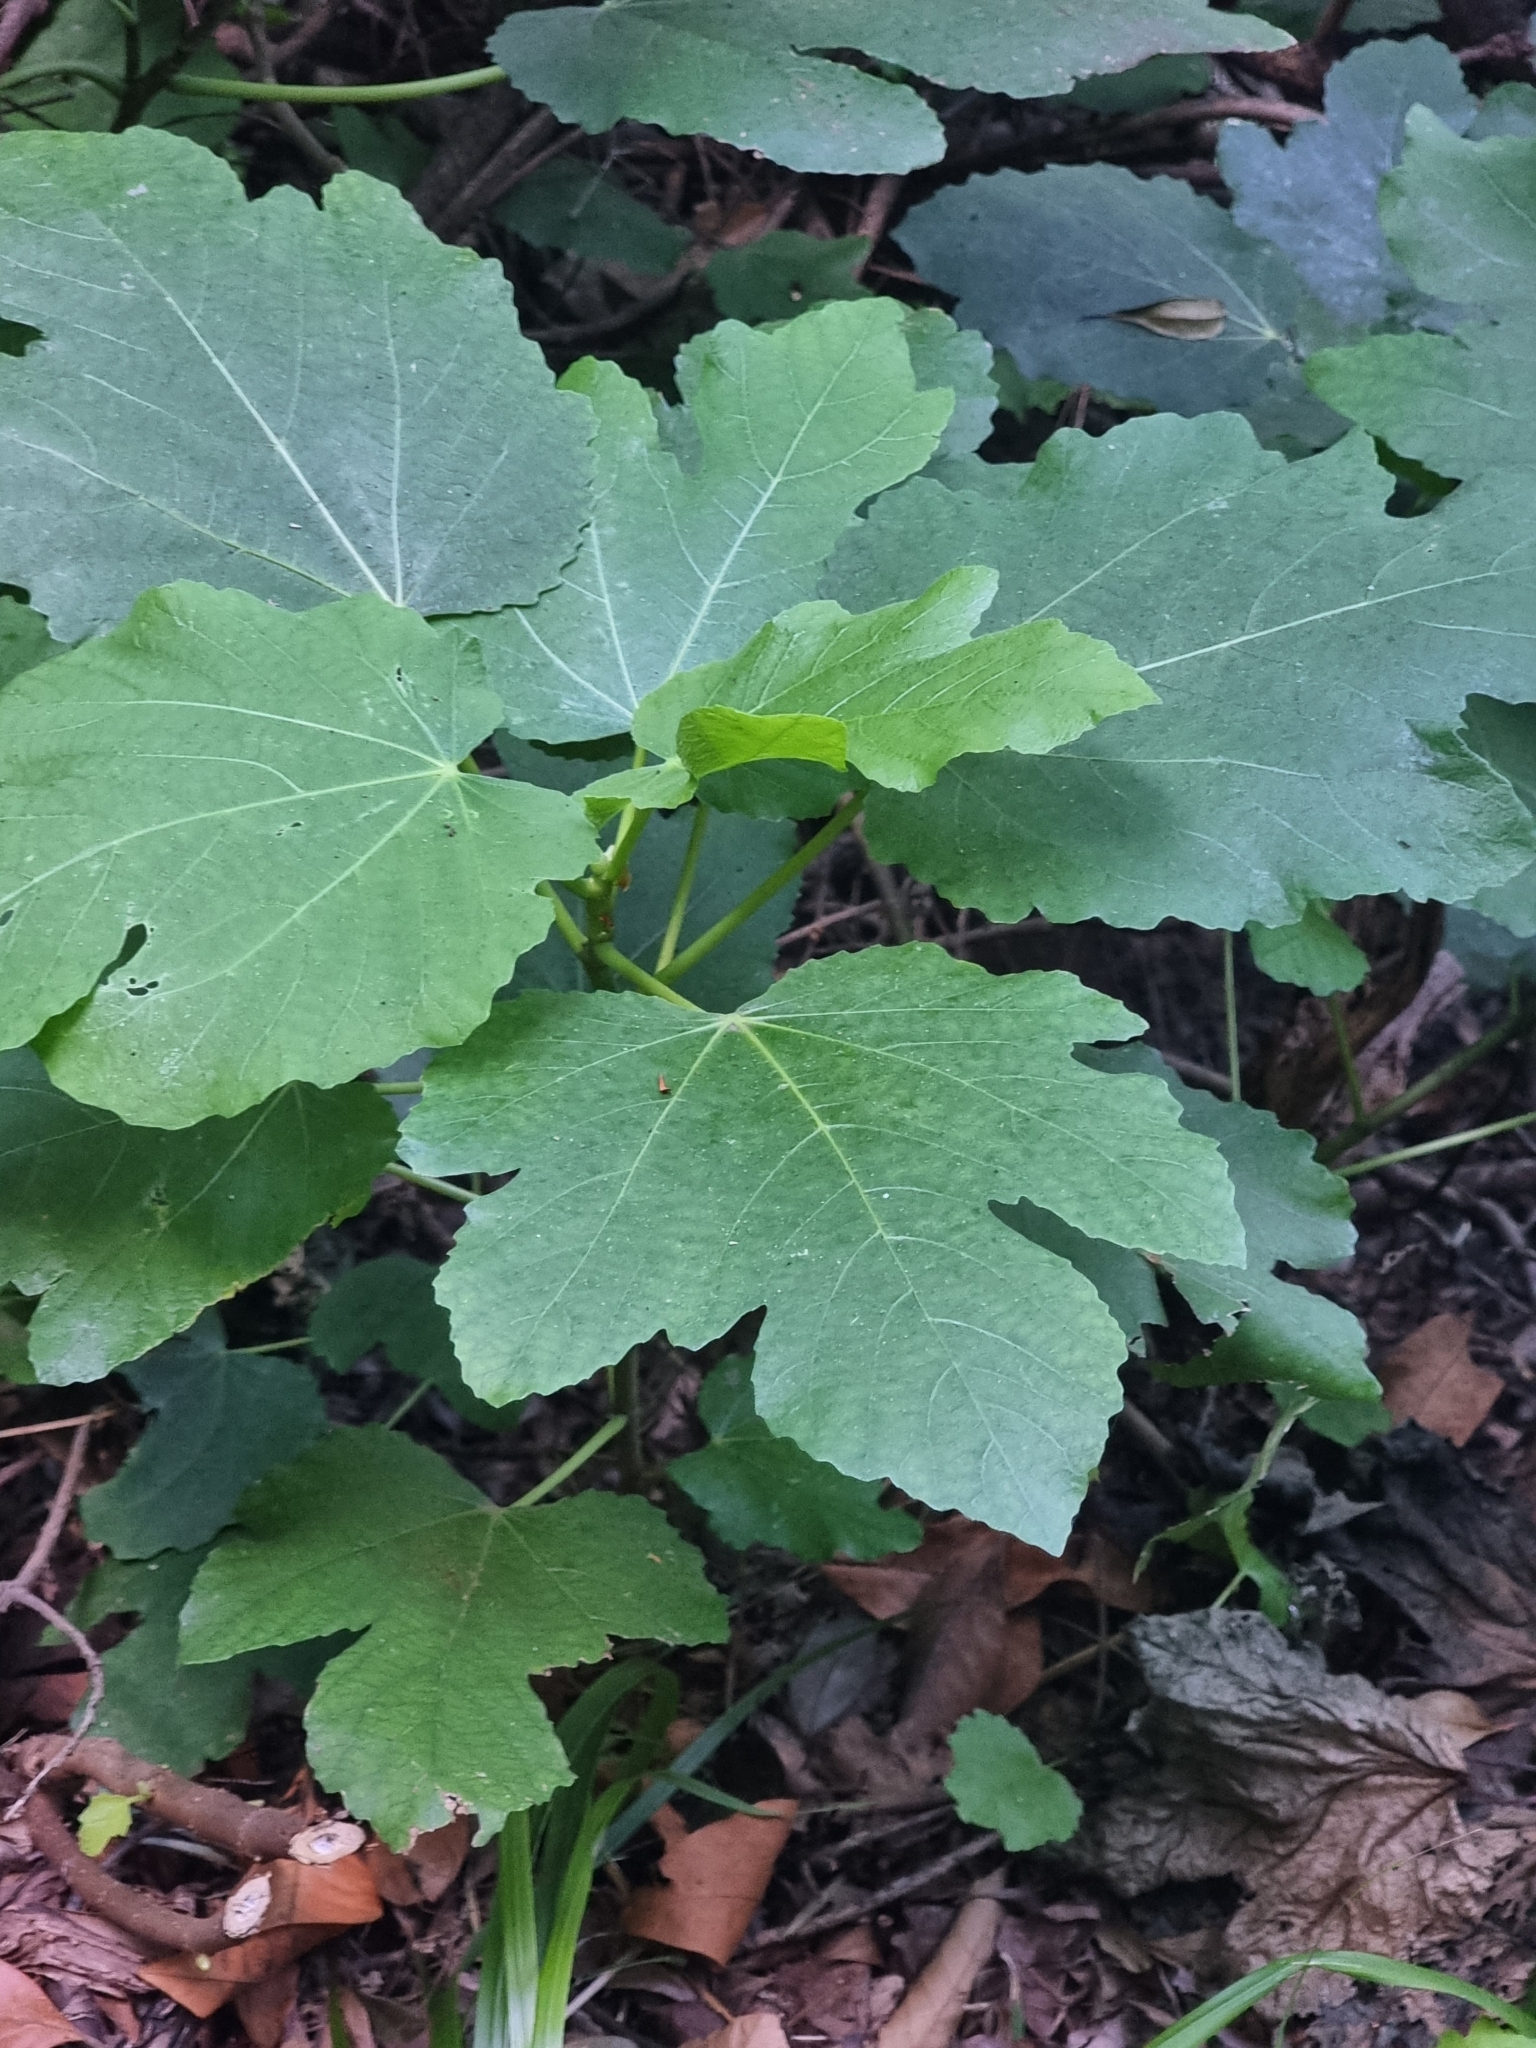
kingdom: Plantae
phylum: Tracheophyta
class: Magnoliopsida
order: Rosales
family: Moraceae
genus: Ficus
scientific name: Ficus carica
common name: Fig
